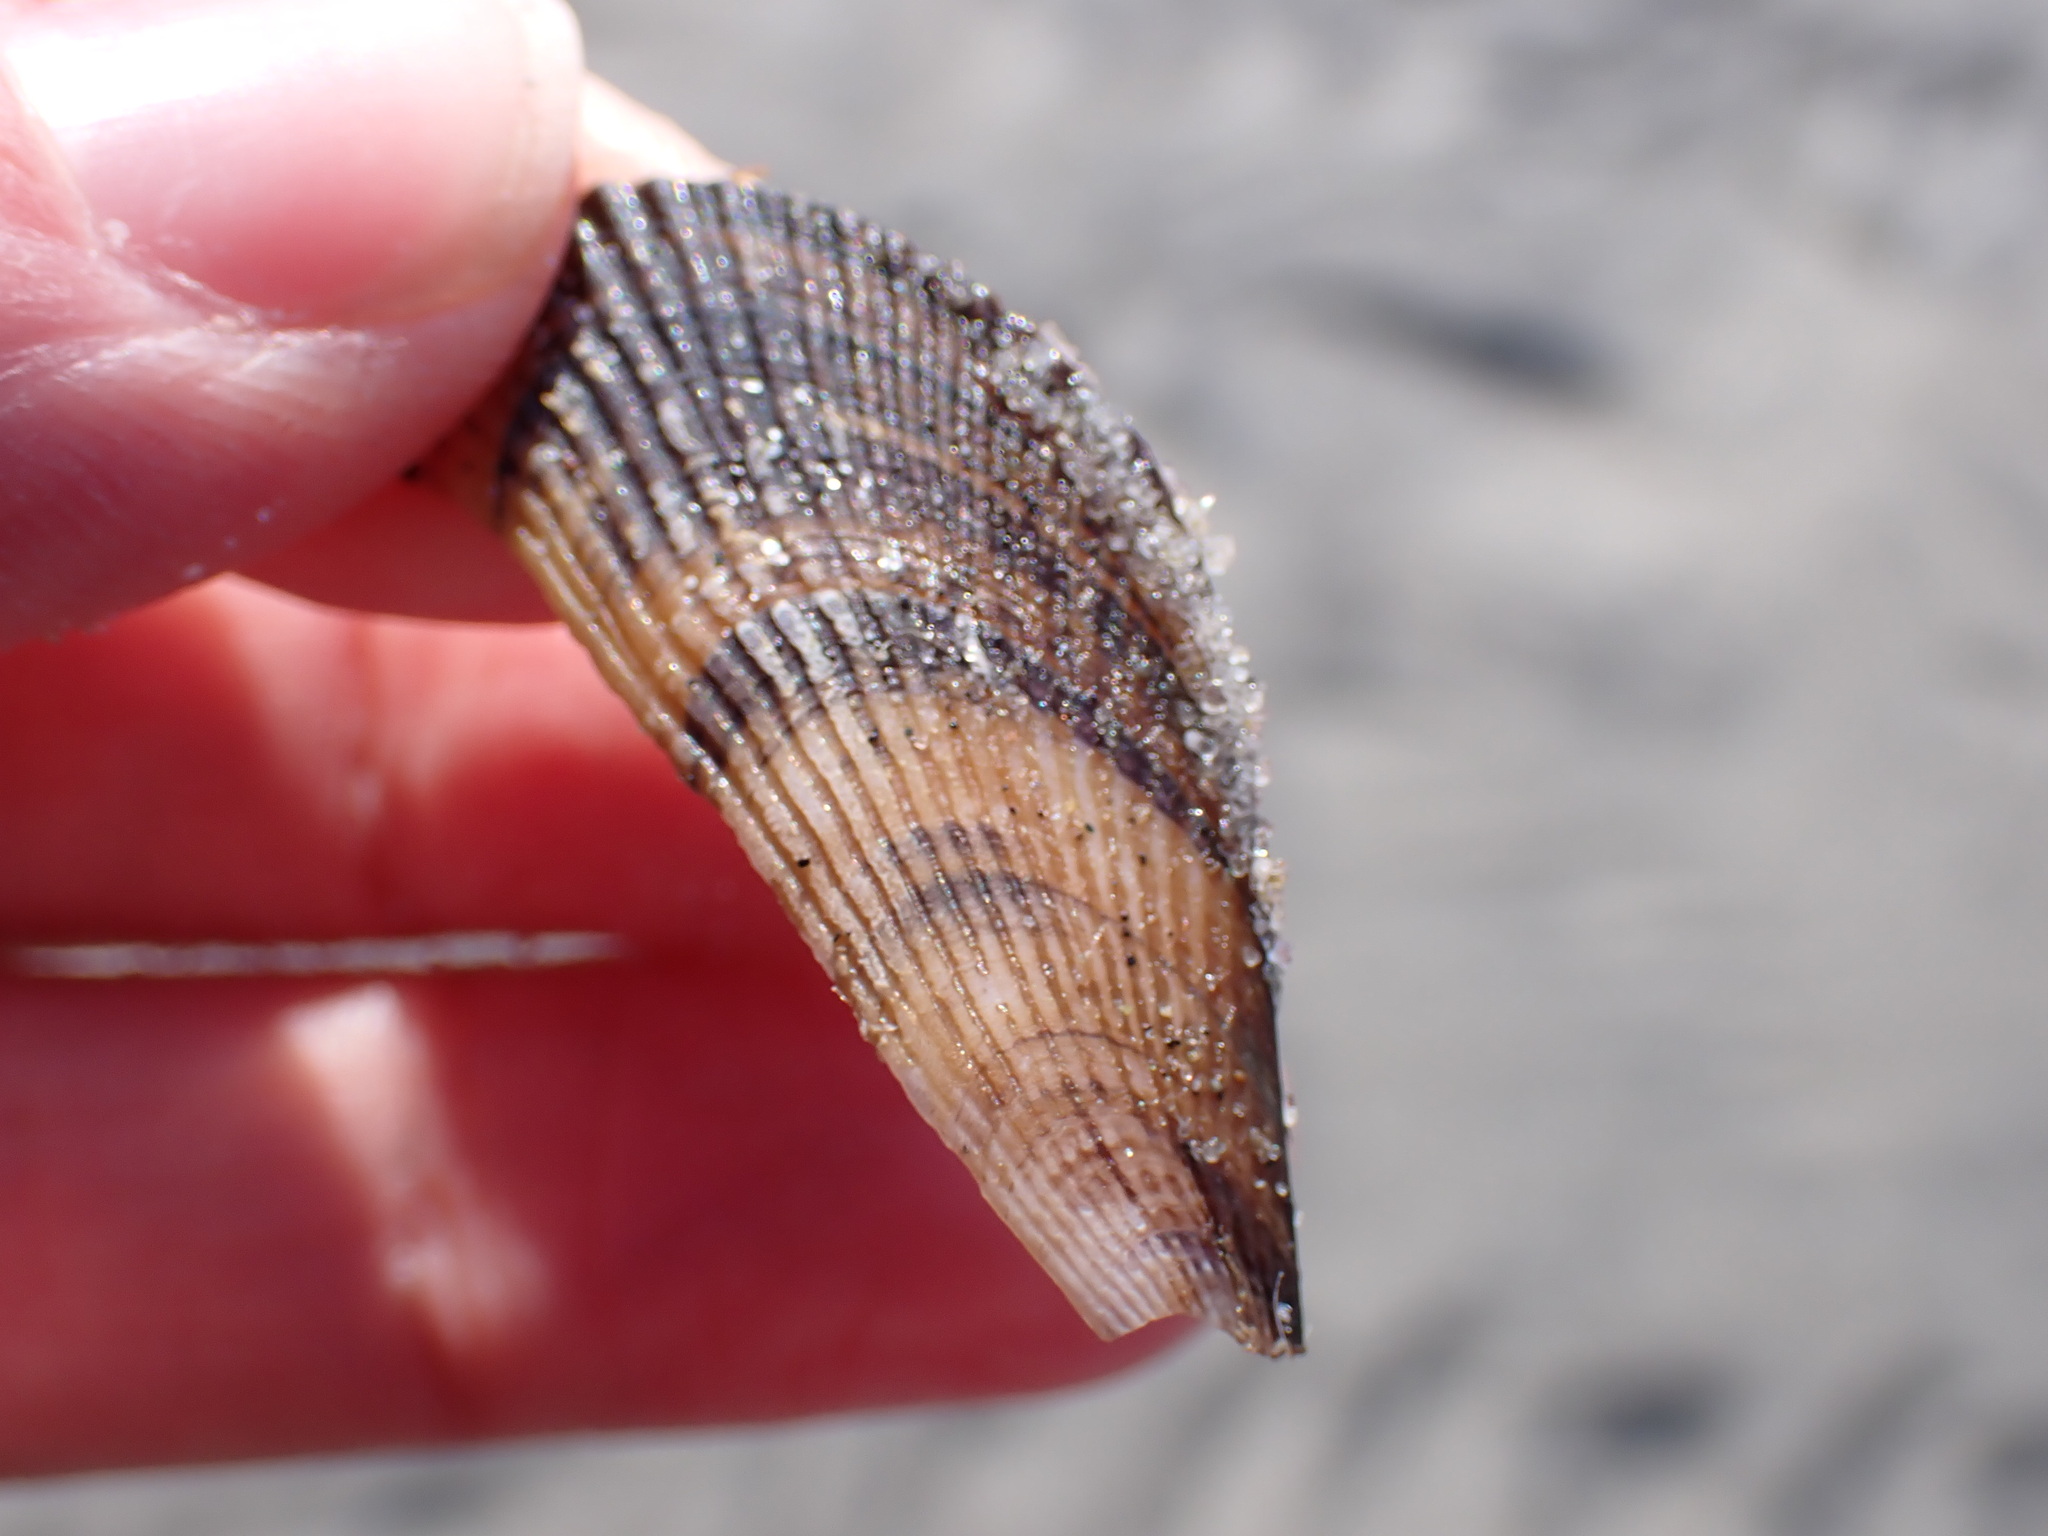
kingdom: Animalia
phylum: Mollusca
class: Bivalvia
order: Mytilida
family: Mytilidae
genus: Geukensia
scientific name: Geukensia demissa
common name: Ribbed mussel
